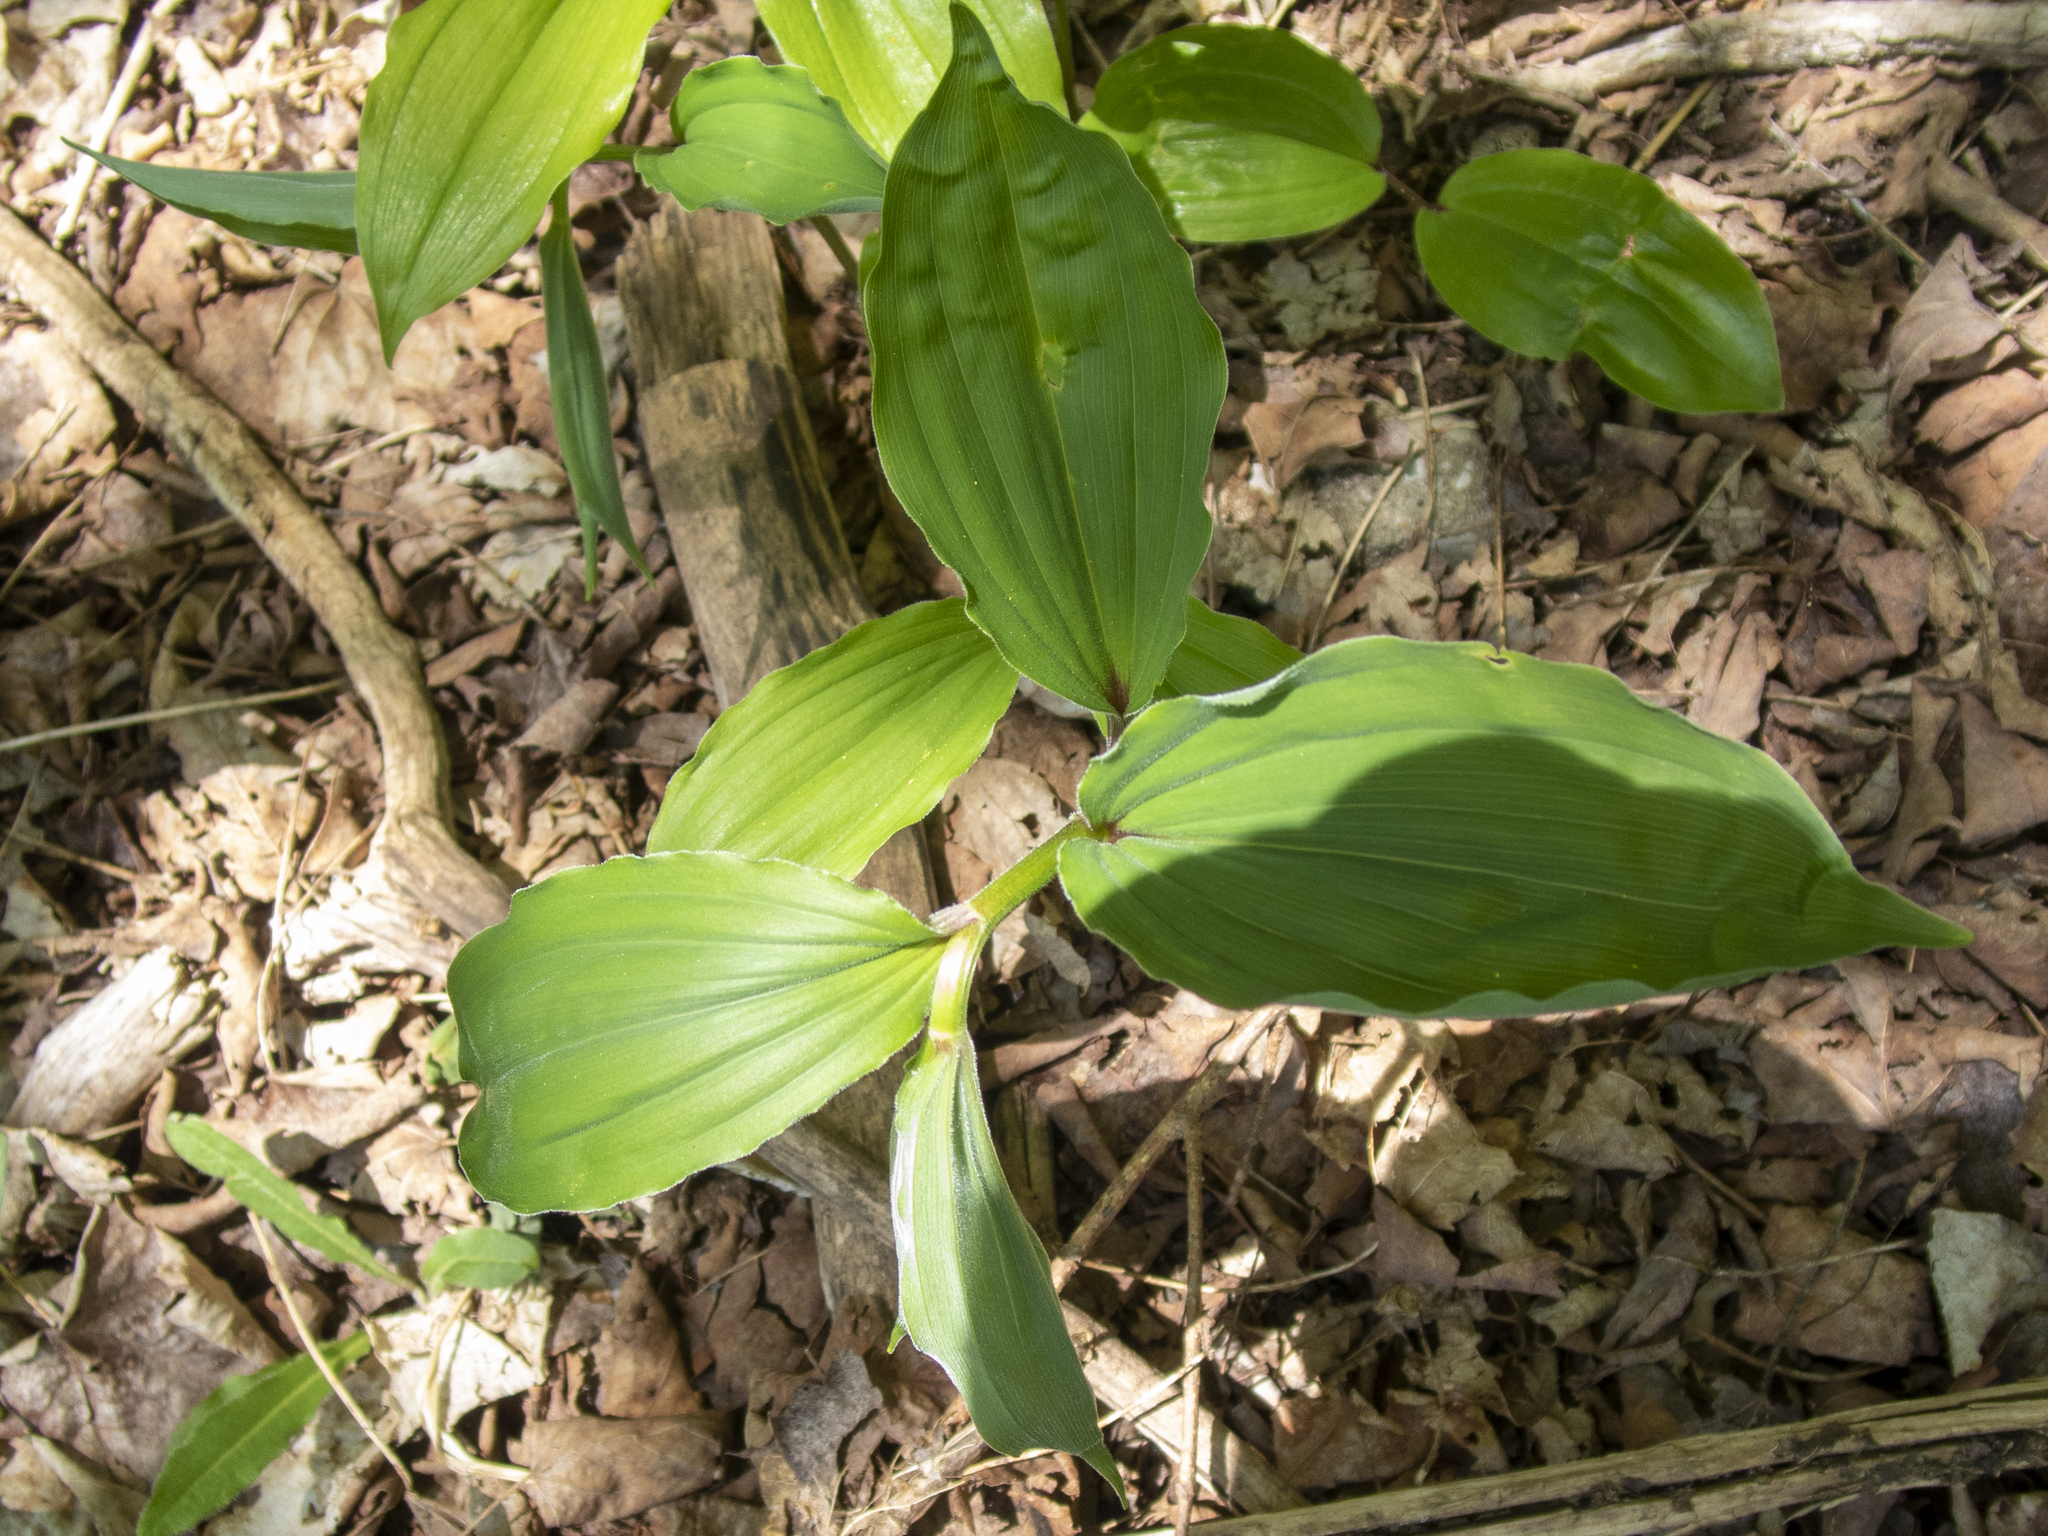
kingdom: Plantae
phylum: Tracheophyta
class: Liliopsida
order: Asparagales
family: Asparagaceae
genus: Maianthemum
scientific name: Maianthemum racemosum
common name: False spikenard
